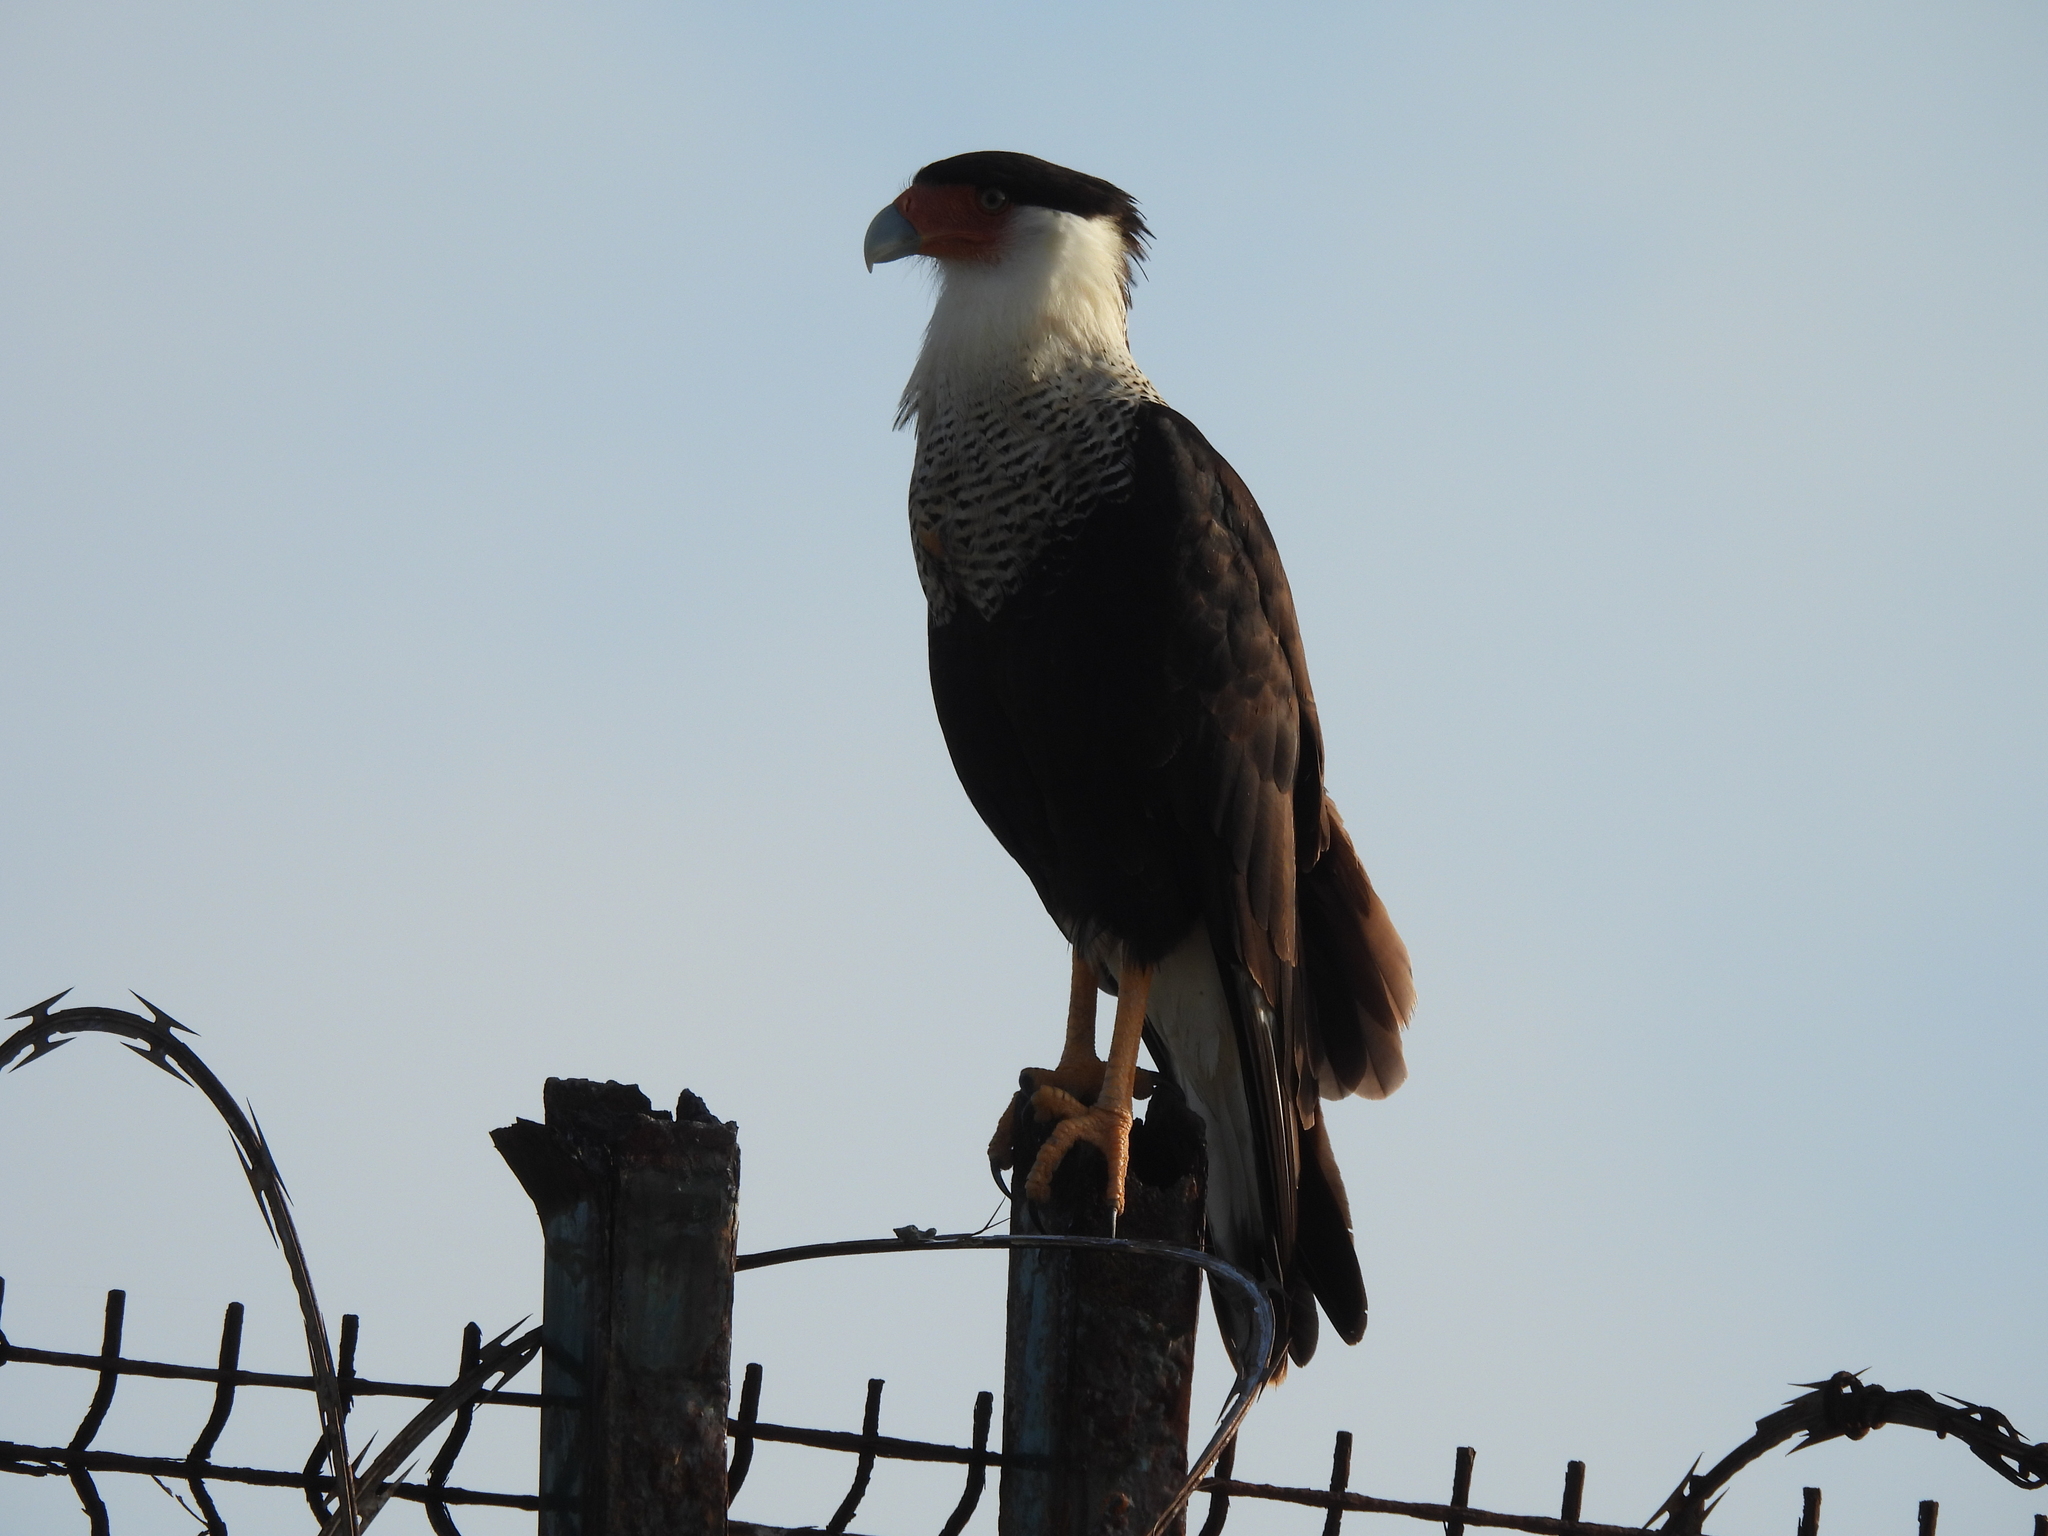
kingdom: Animalia
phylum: Chordata
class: Aves
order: Falconiformes
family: Falconidae
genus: Caracara
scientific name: Caracara plancus
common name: Southern caracara
